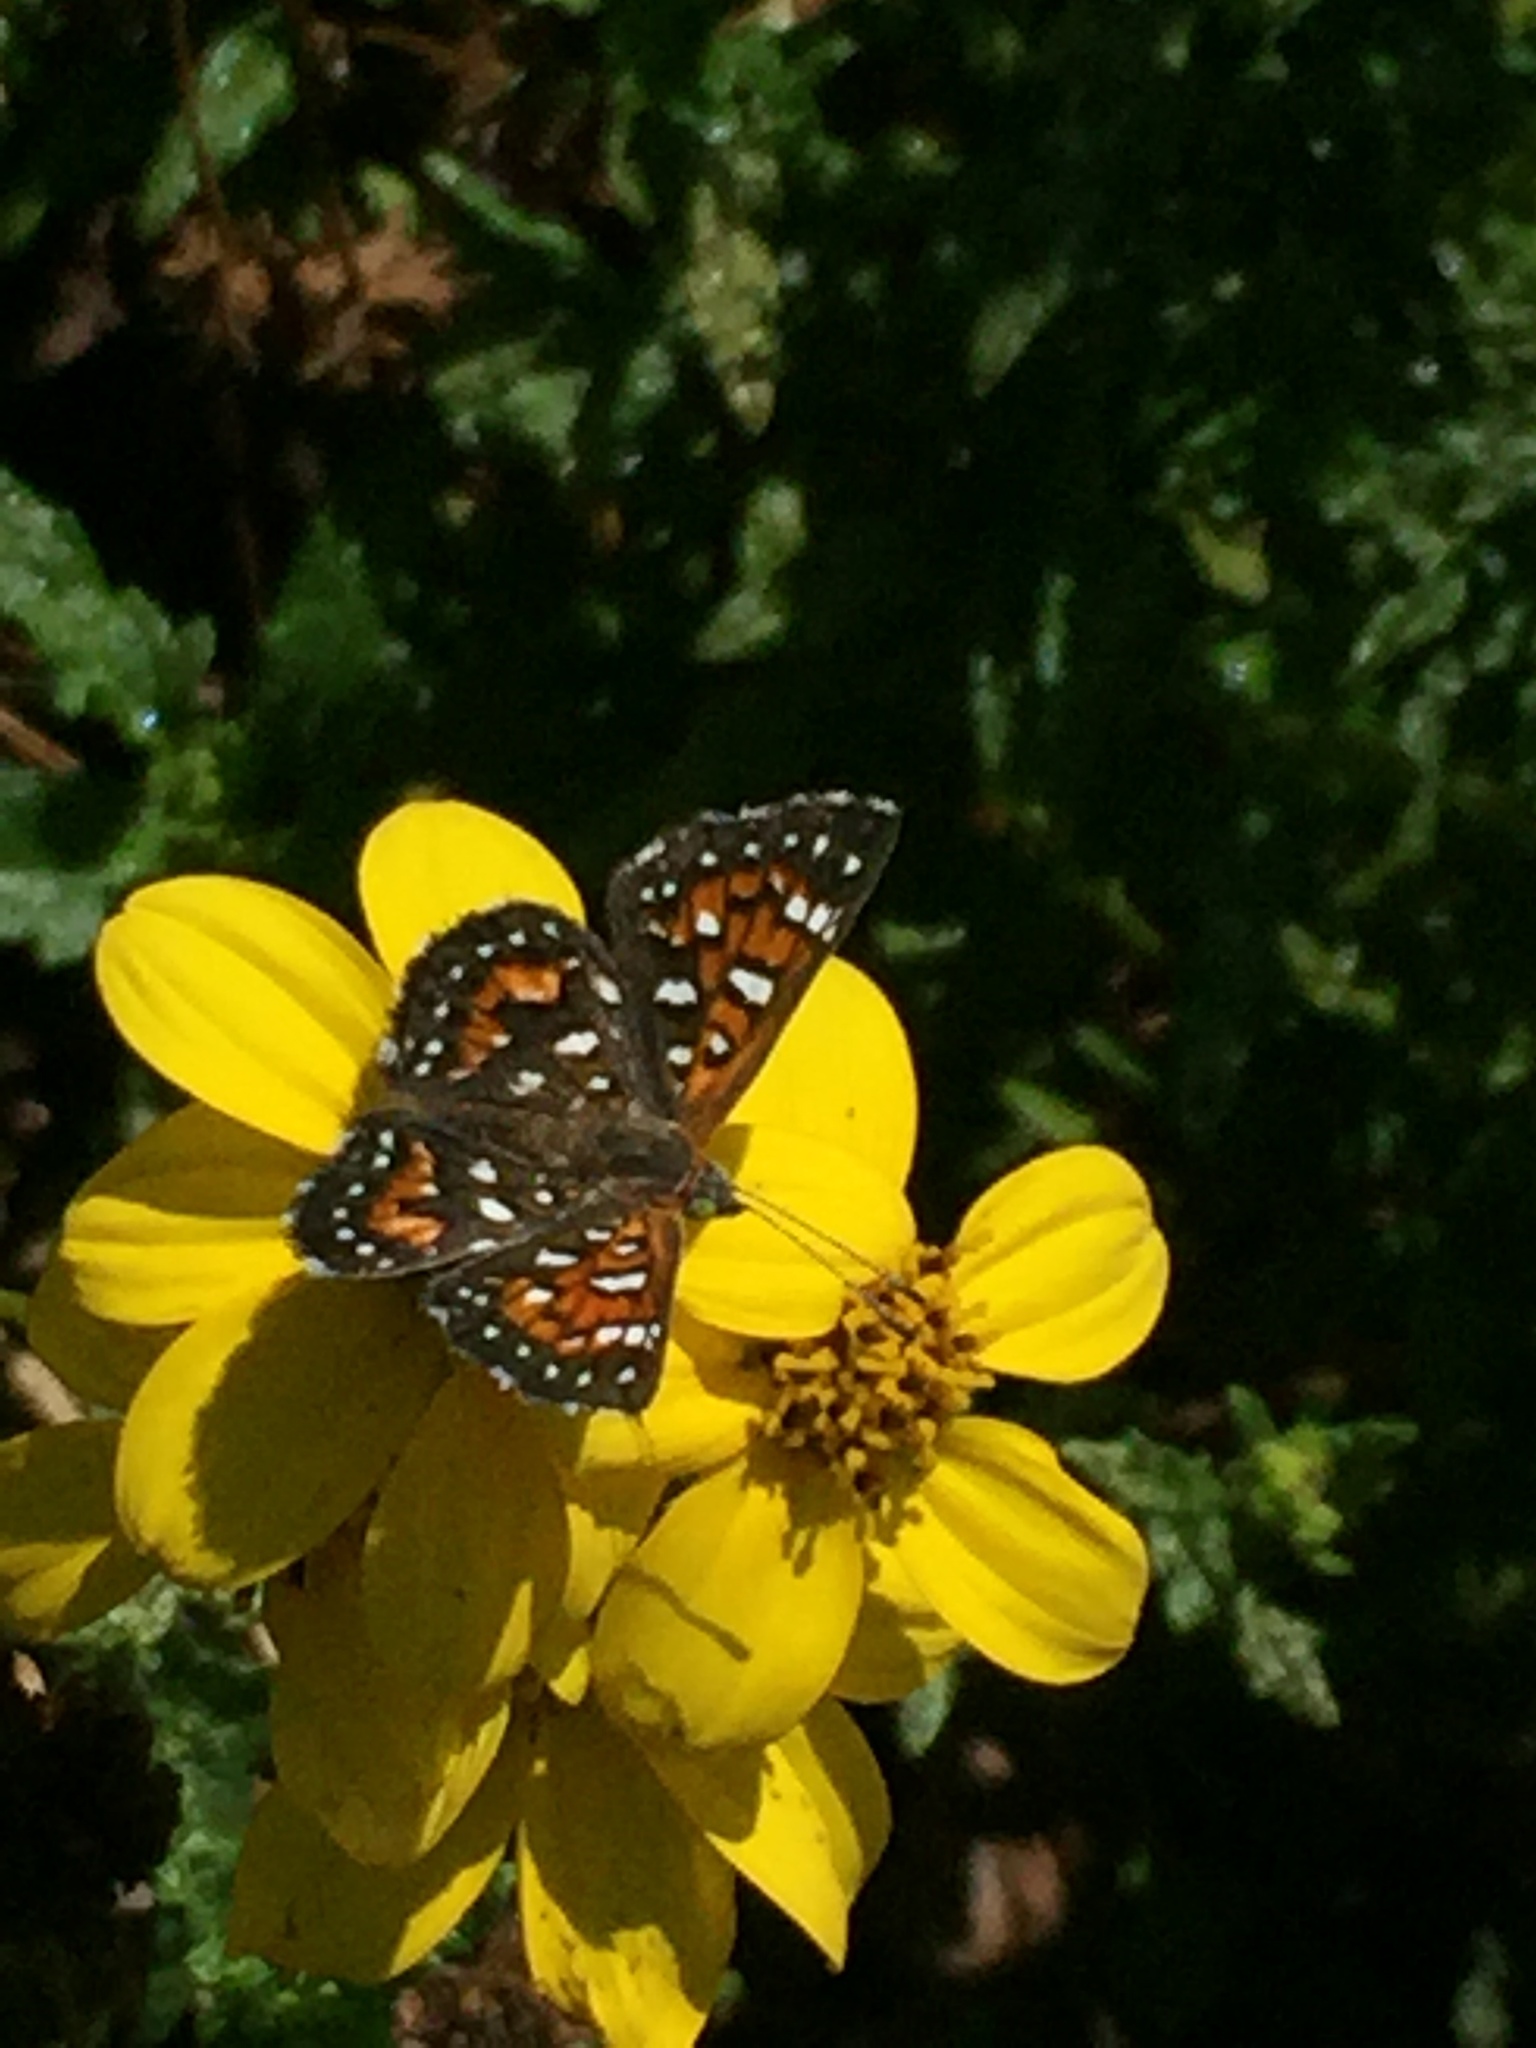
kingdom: Animalia
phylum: Arthropoda
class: Insecta
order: Lepidoptera
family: Riodinidae
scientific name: Riodinidae
